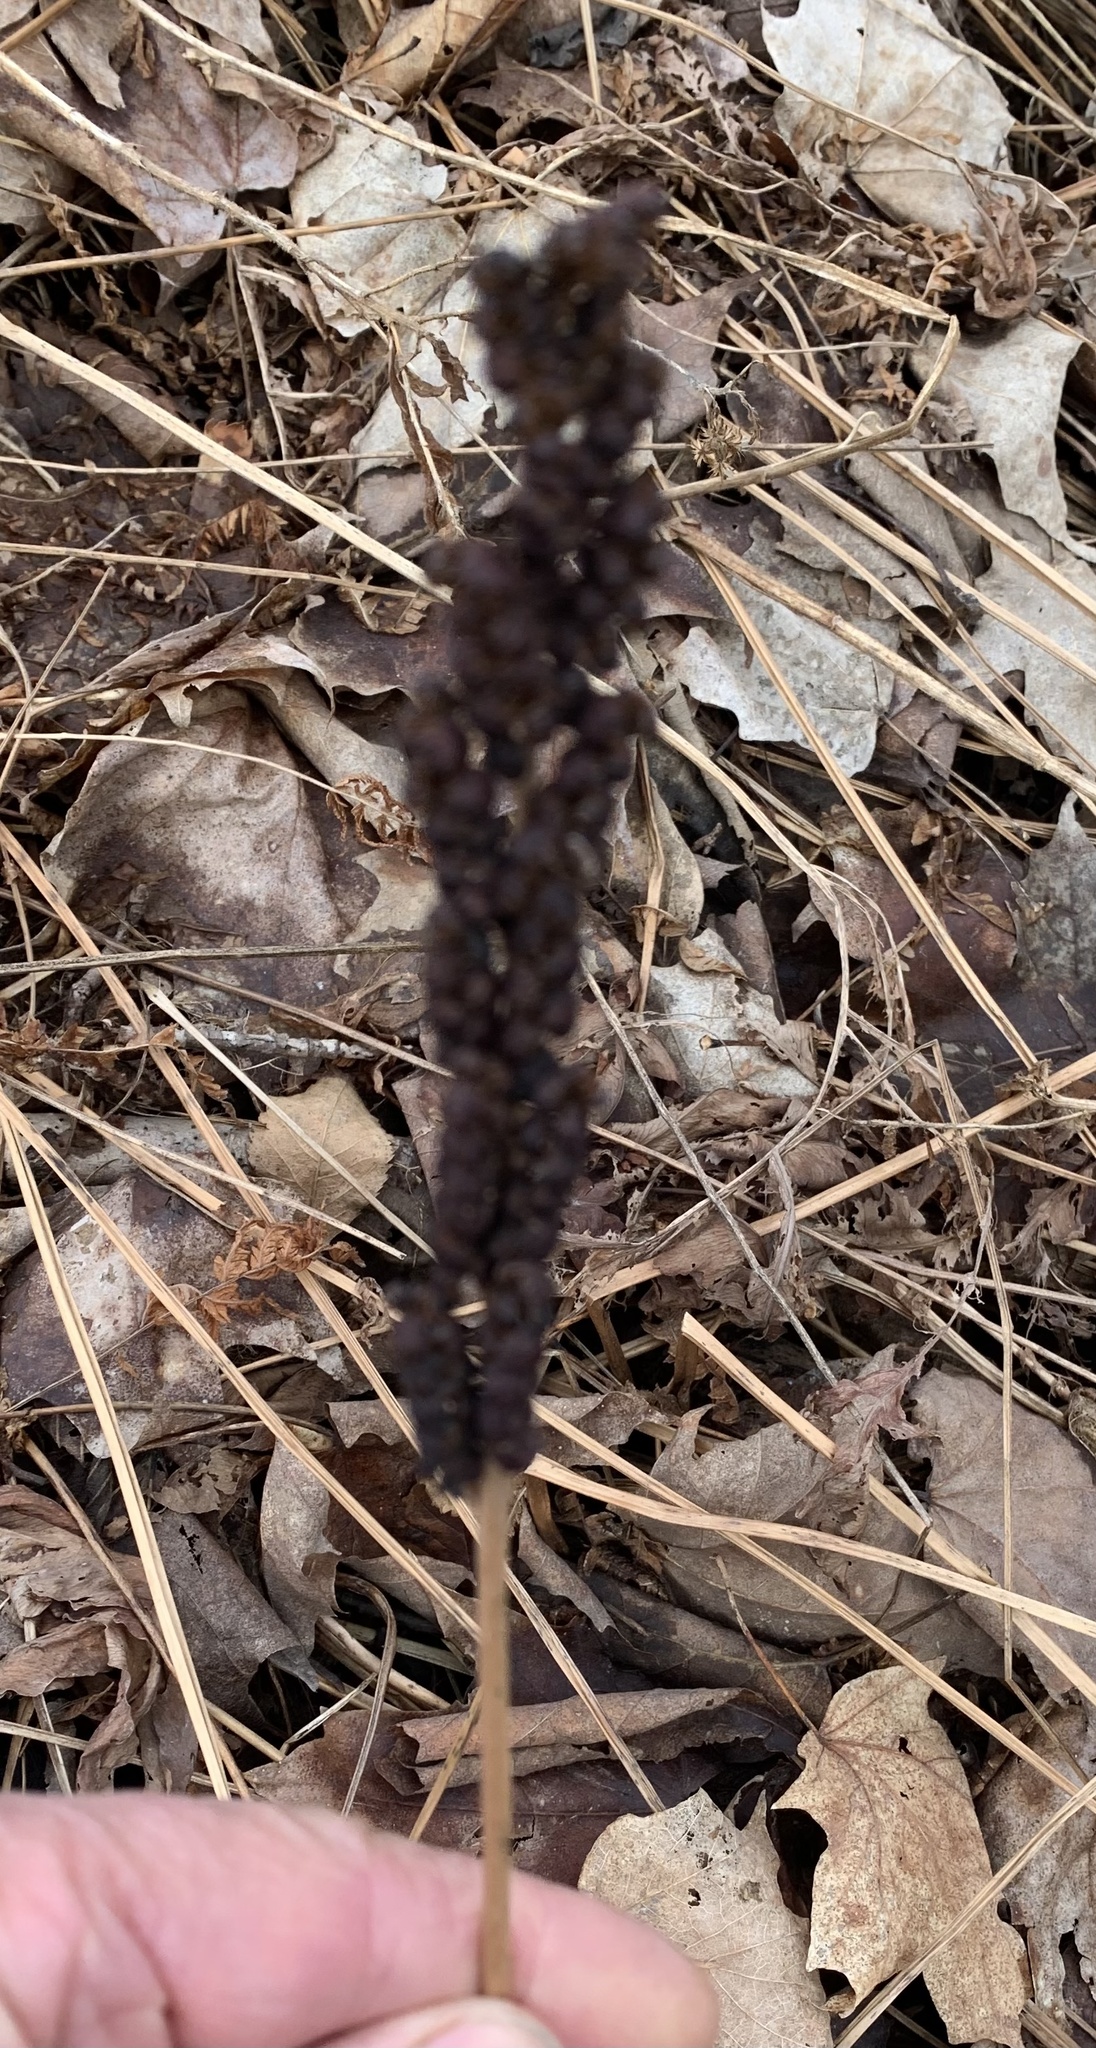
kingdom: Plantae
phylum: Tracheophyta
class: Polypodiopsida
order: Polypodiales
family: Onocleaceae
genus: Onoclea
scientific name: Onoclea sensibilis
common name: Sensitive fern
